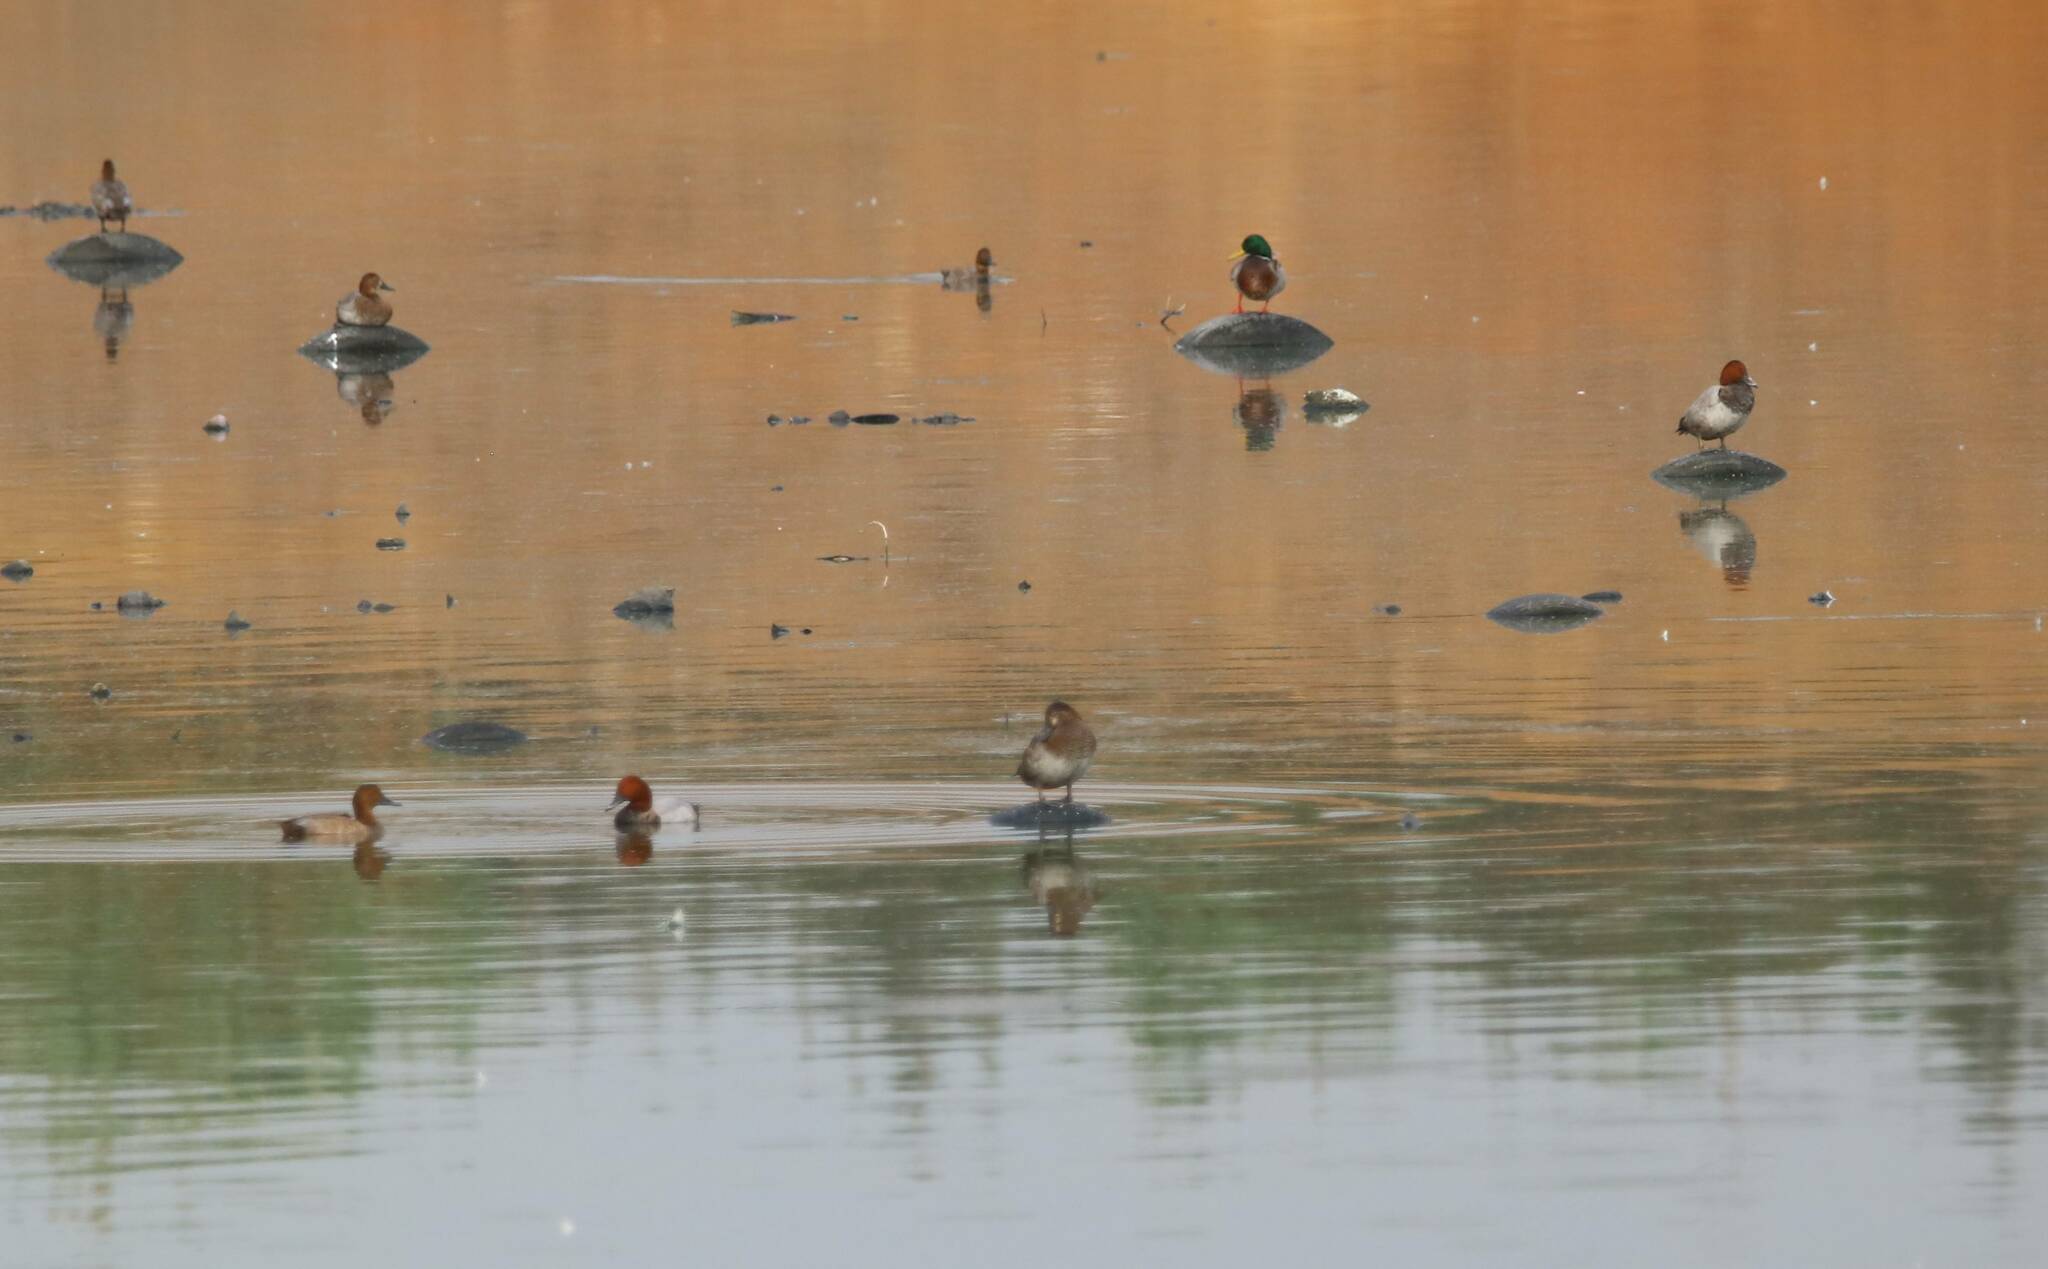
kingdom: Animalia
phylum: Chordata
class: Aves
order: Anseriformes
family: Anatidae
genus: Aythya
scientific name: Aythya nyroca
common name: Ferruginous duck
